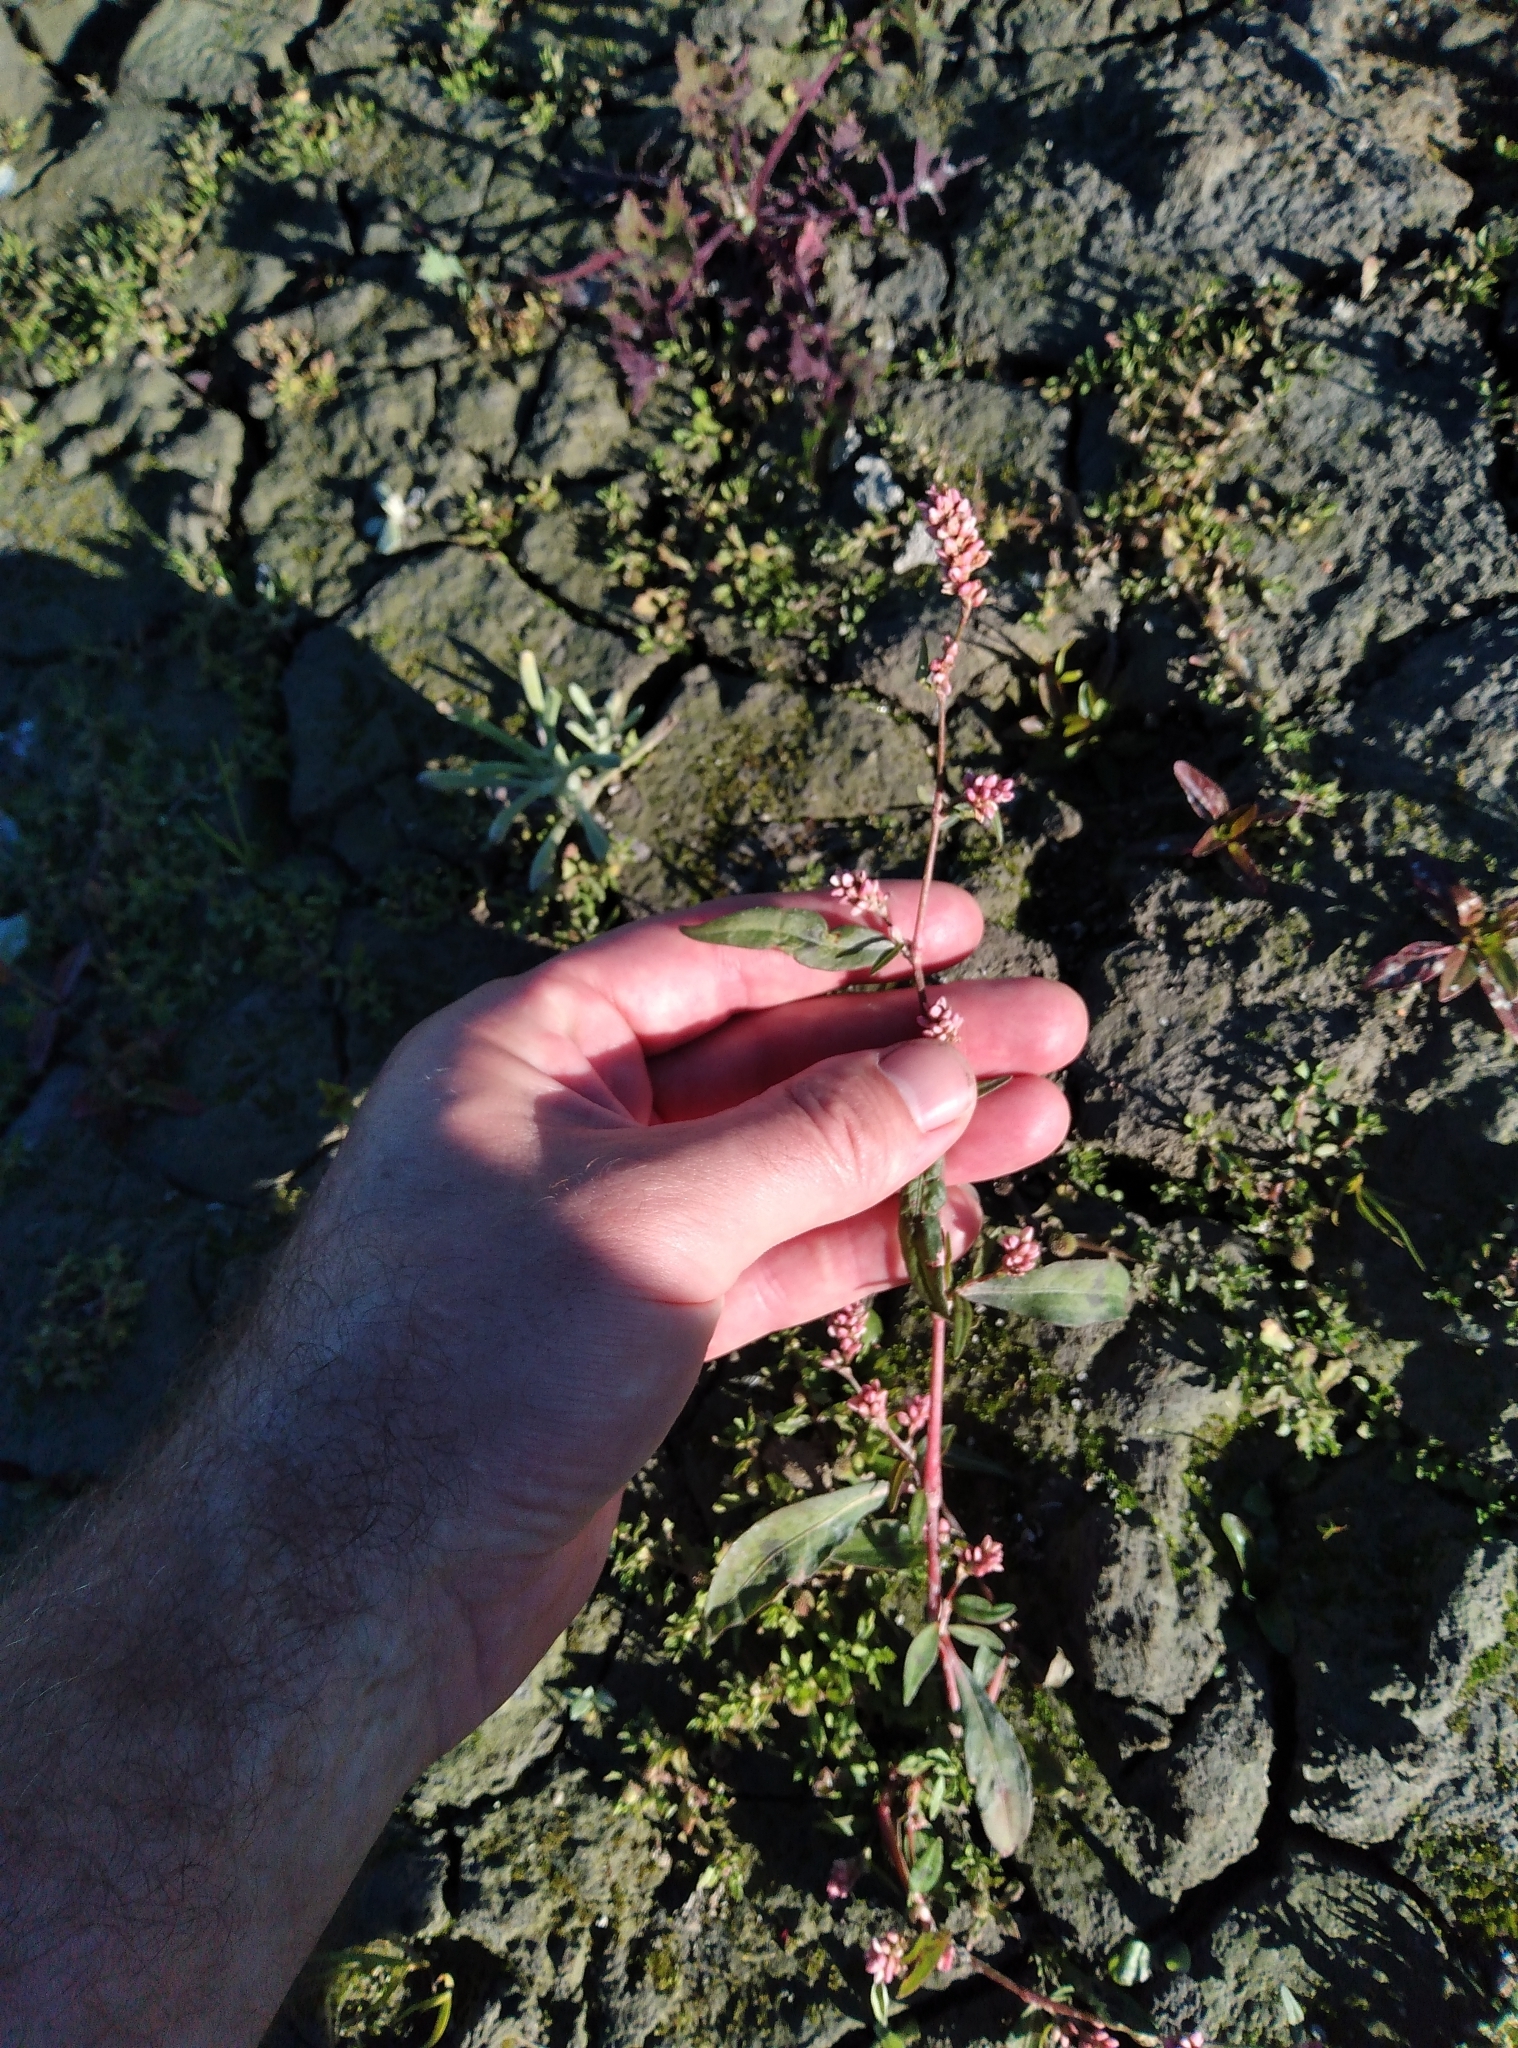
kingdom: Plantae
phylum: Tracheophyta
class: Magnoliopsida
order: Caryophyllales
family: Polygonaceae
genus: Persicaria
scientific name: Persicaria maculosa
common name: Redshank
